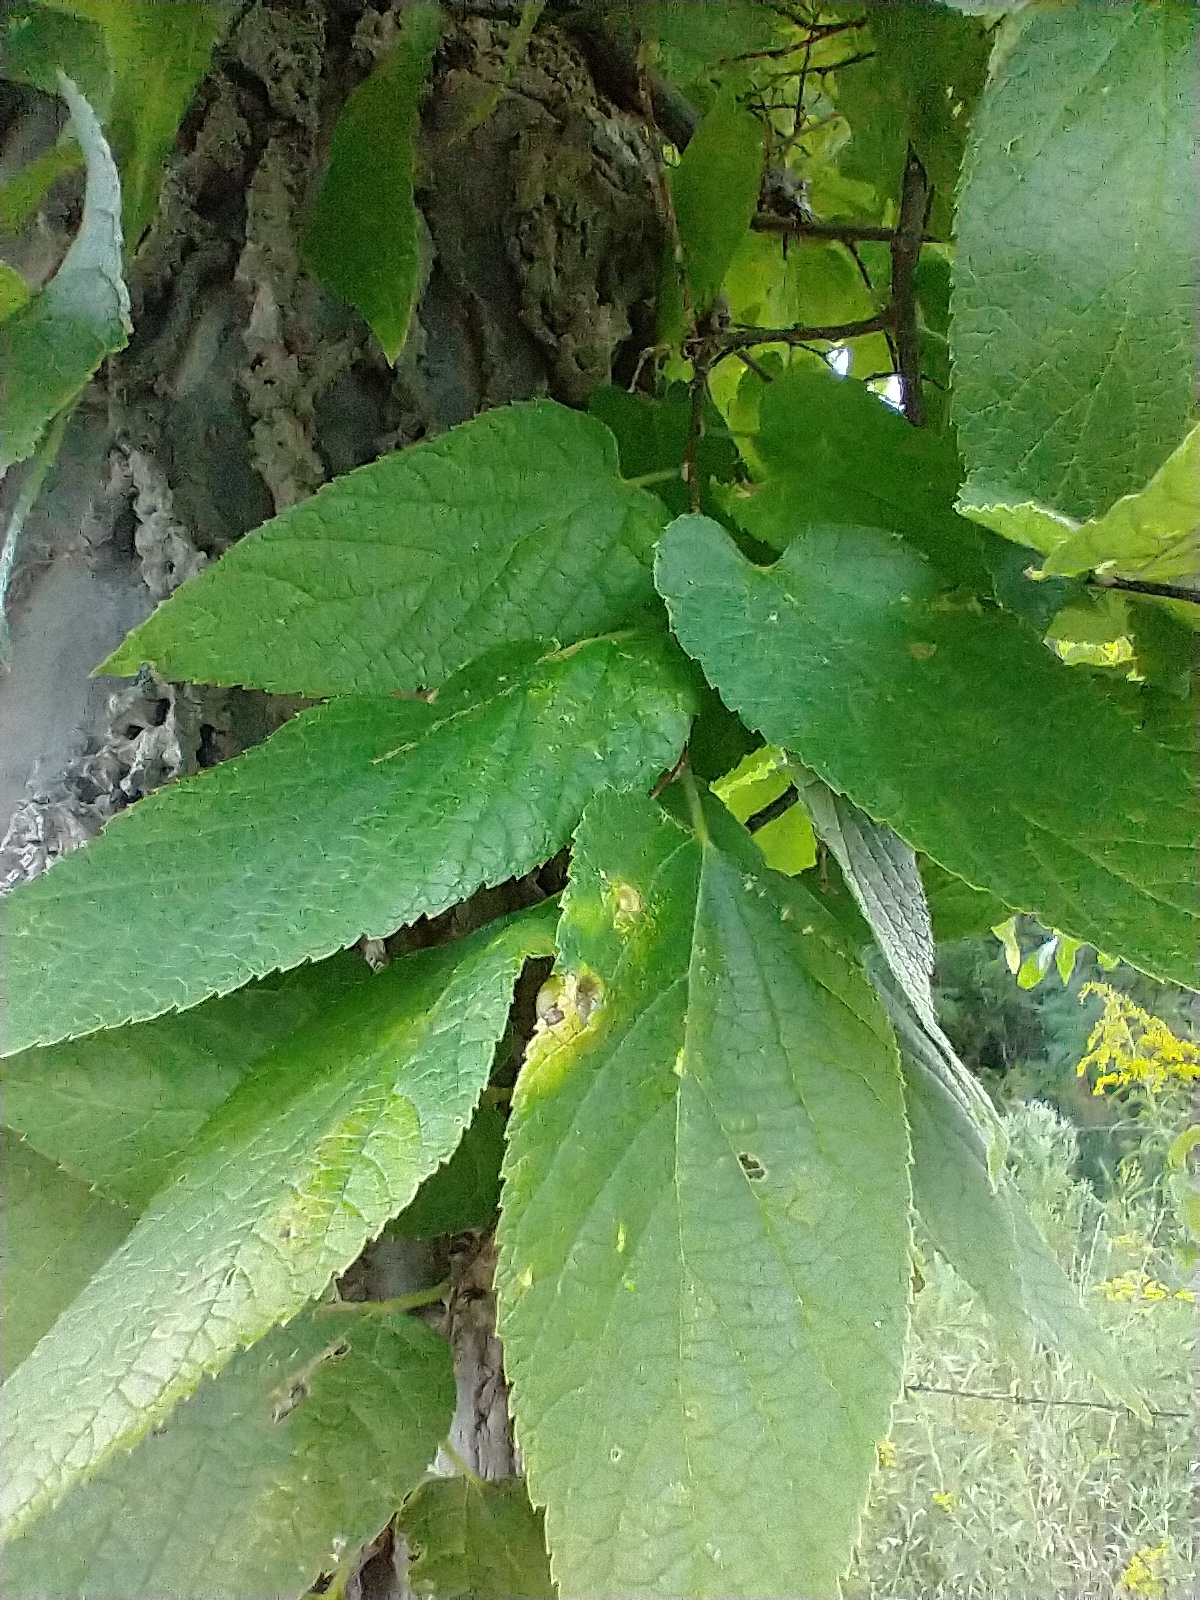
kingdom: Plantae
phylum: Tracheophyta
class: Magnoliopsida
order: Rosales
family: Cannabaceae
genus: Celtis
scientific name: Celtis occidentalis
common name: Common hackberry
